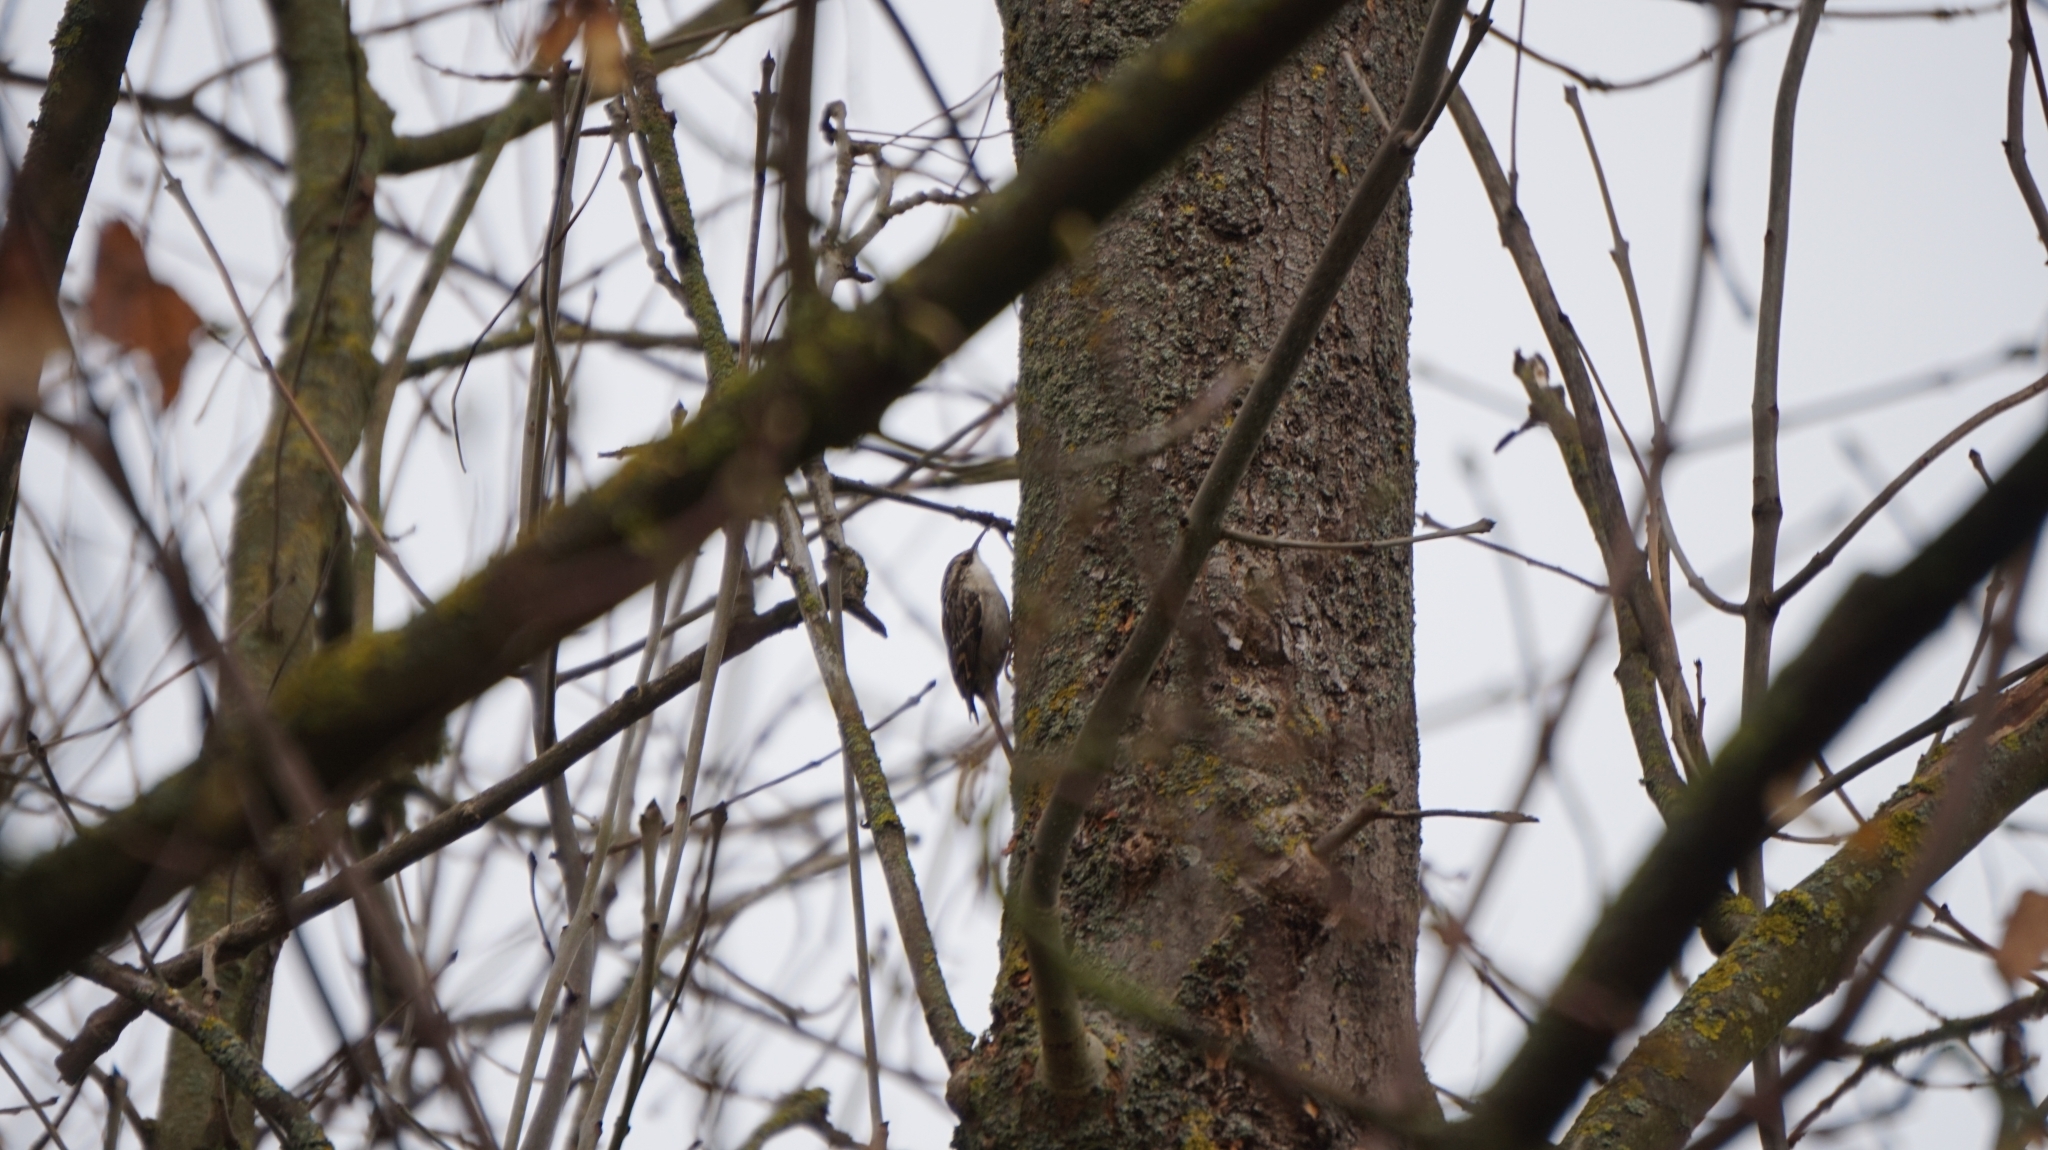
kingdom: Animalia
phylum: Chordata
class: Aves
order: Passeriformes
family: Certhiidae
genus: Certhia
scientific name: Certhia brachydactyla
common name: Short-toed treecreeper
